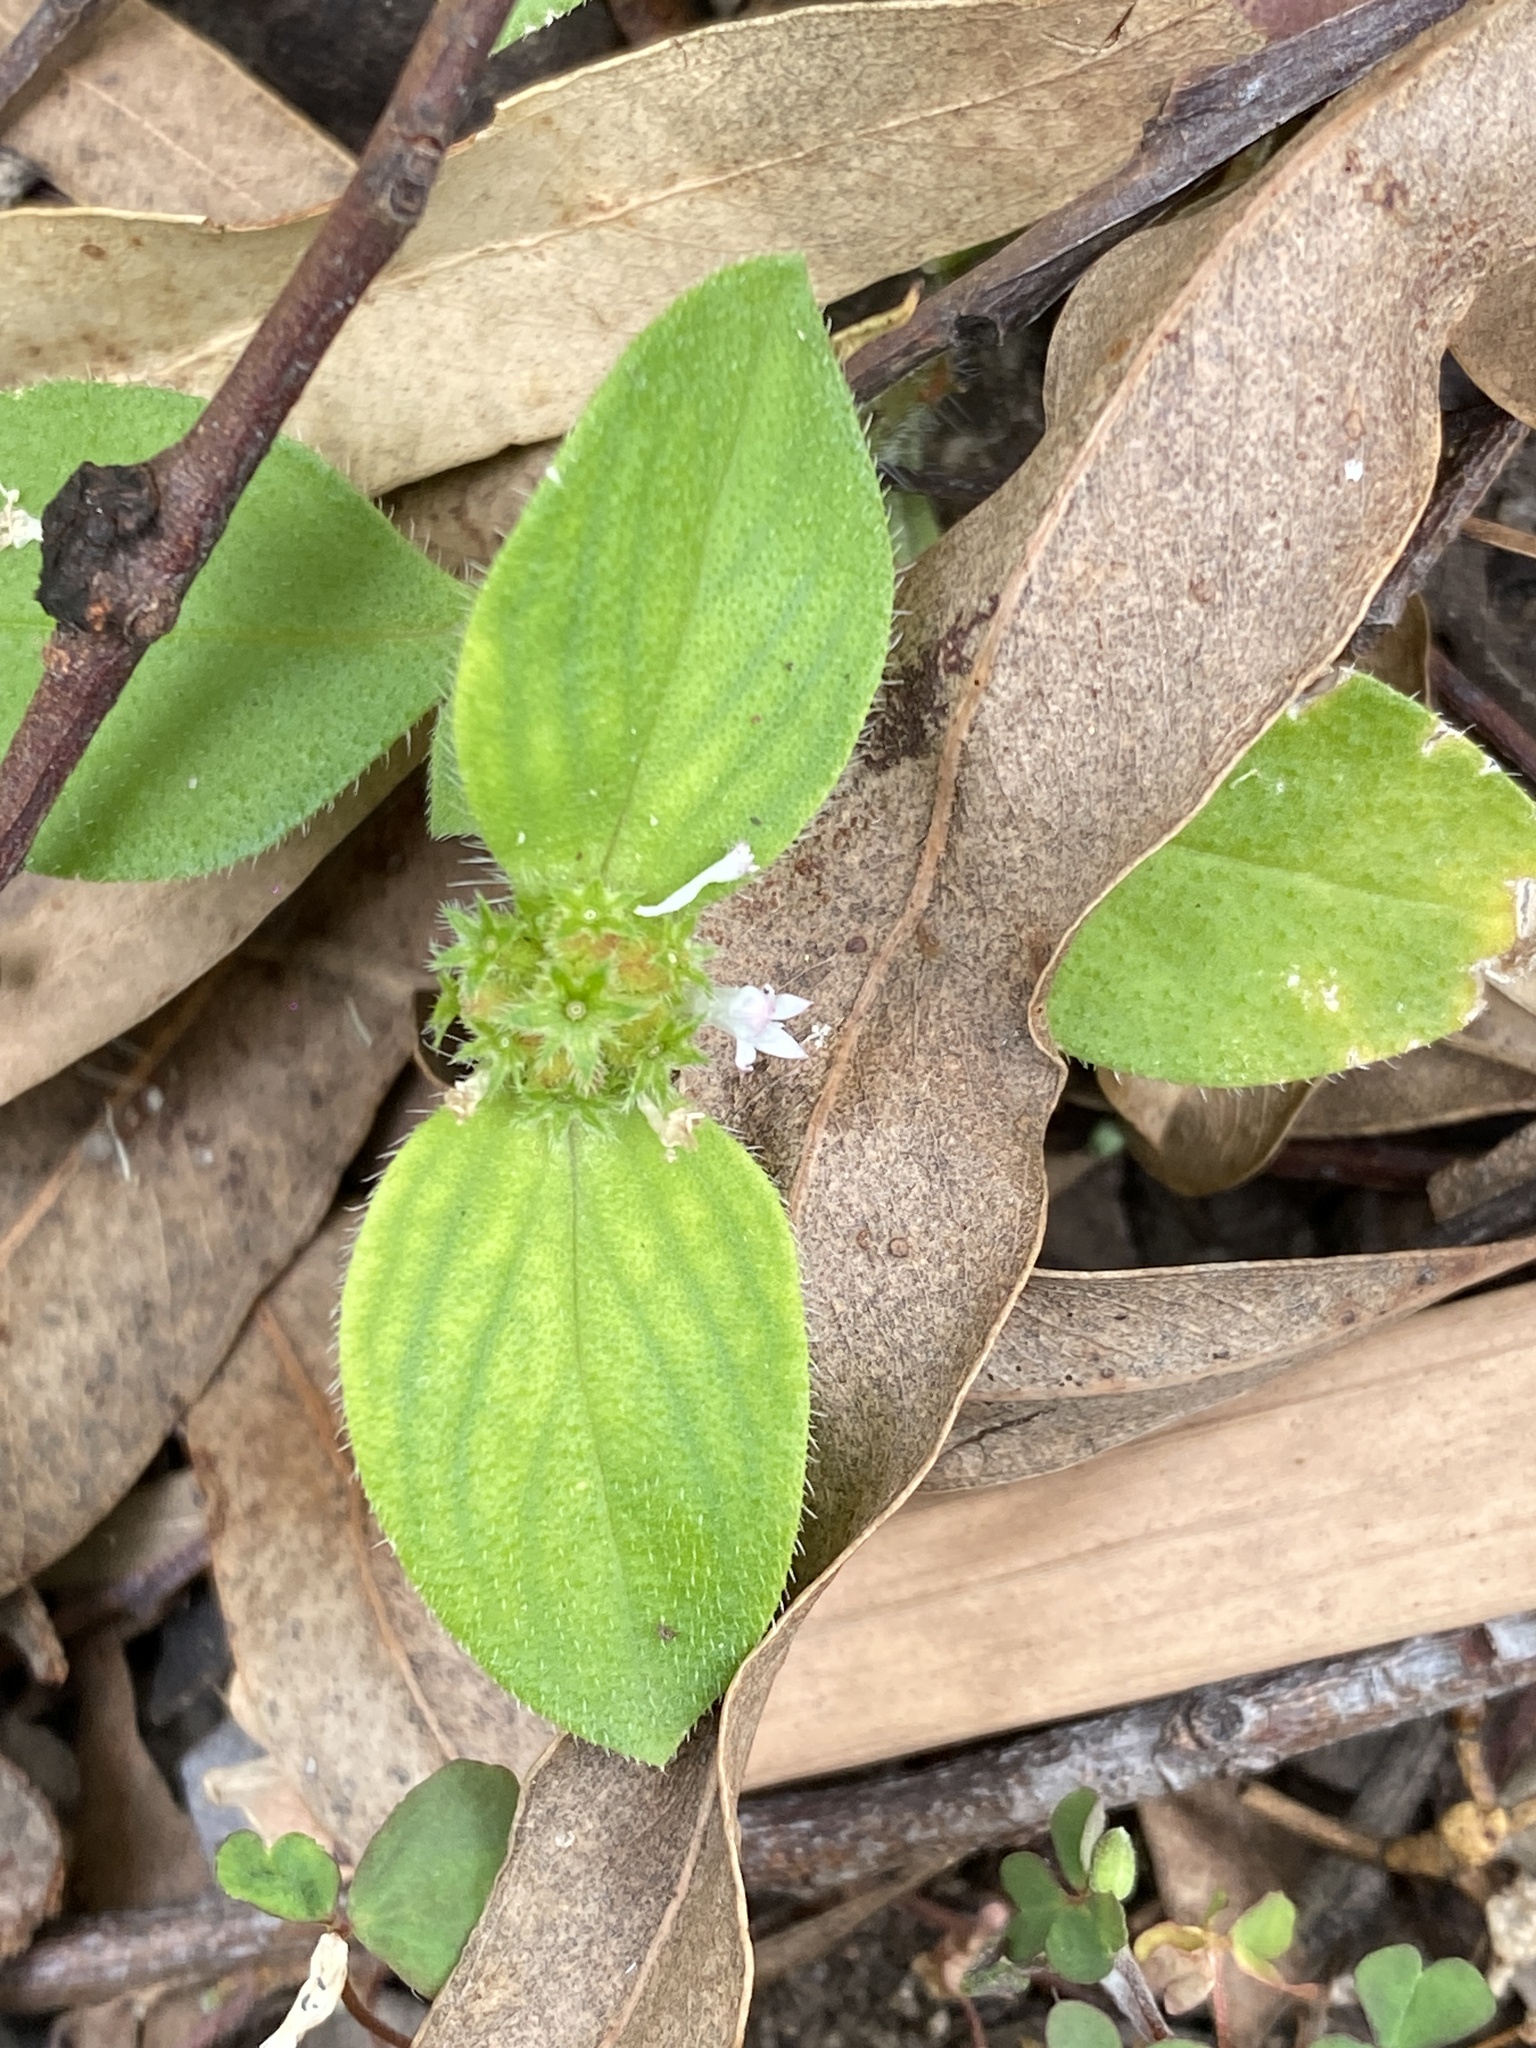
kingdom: Plantae
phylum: Tracheophyta
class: Magnoliopsida
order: Gentianales
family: Rubiaceae
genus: Richardia
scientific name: Richardia brasiliensis
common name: Tropical mexican clover
